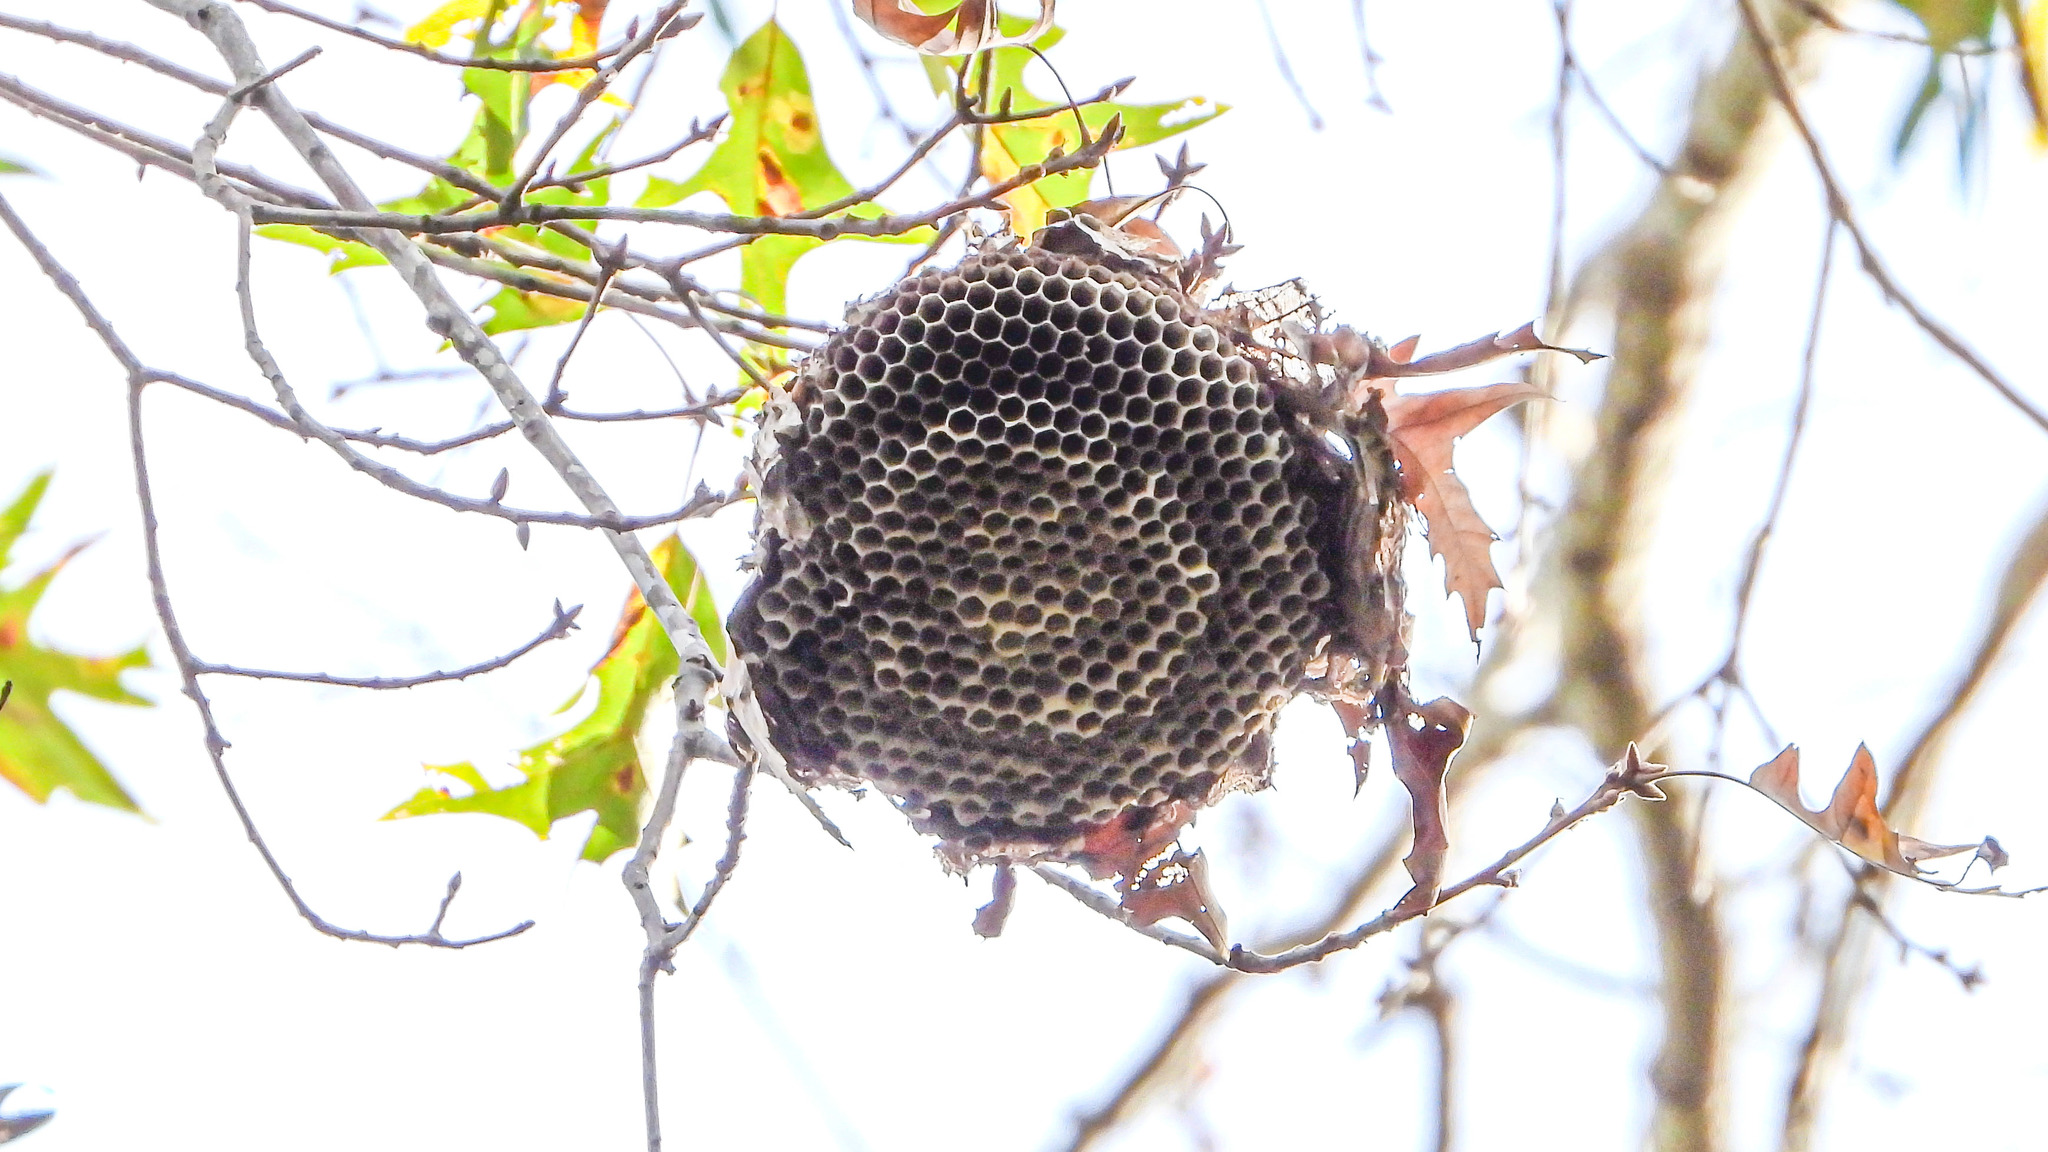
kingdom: Animalia
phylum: Arthropoda
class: Insecta
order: Hymenoptera
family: Vespidae
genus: Dolichovespula
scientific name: Dolichovespula
